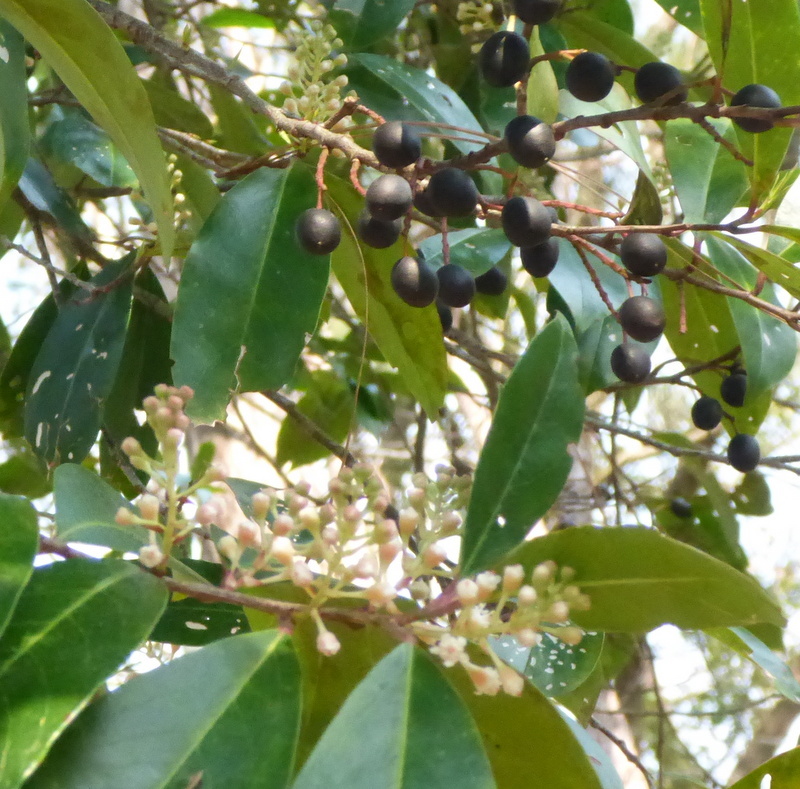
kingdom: Plantae
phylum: Tracheophyta
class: Magnoliopsida
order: Rosales
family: Rosaceae
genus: Prunus
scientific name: Prunus caroliniana
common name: Carolina laurel cherry
